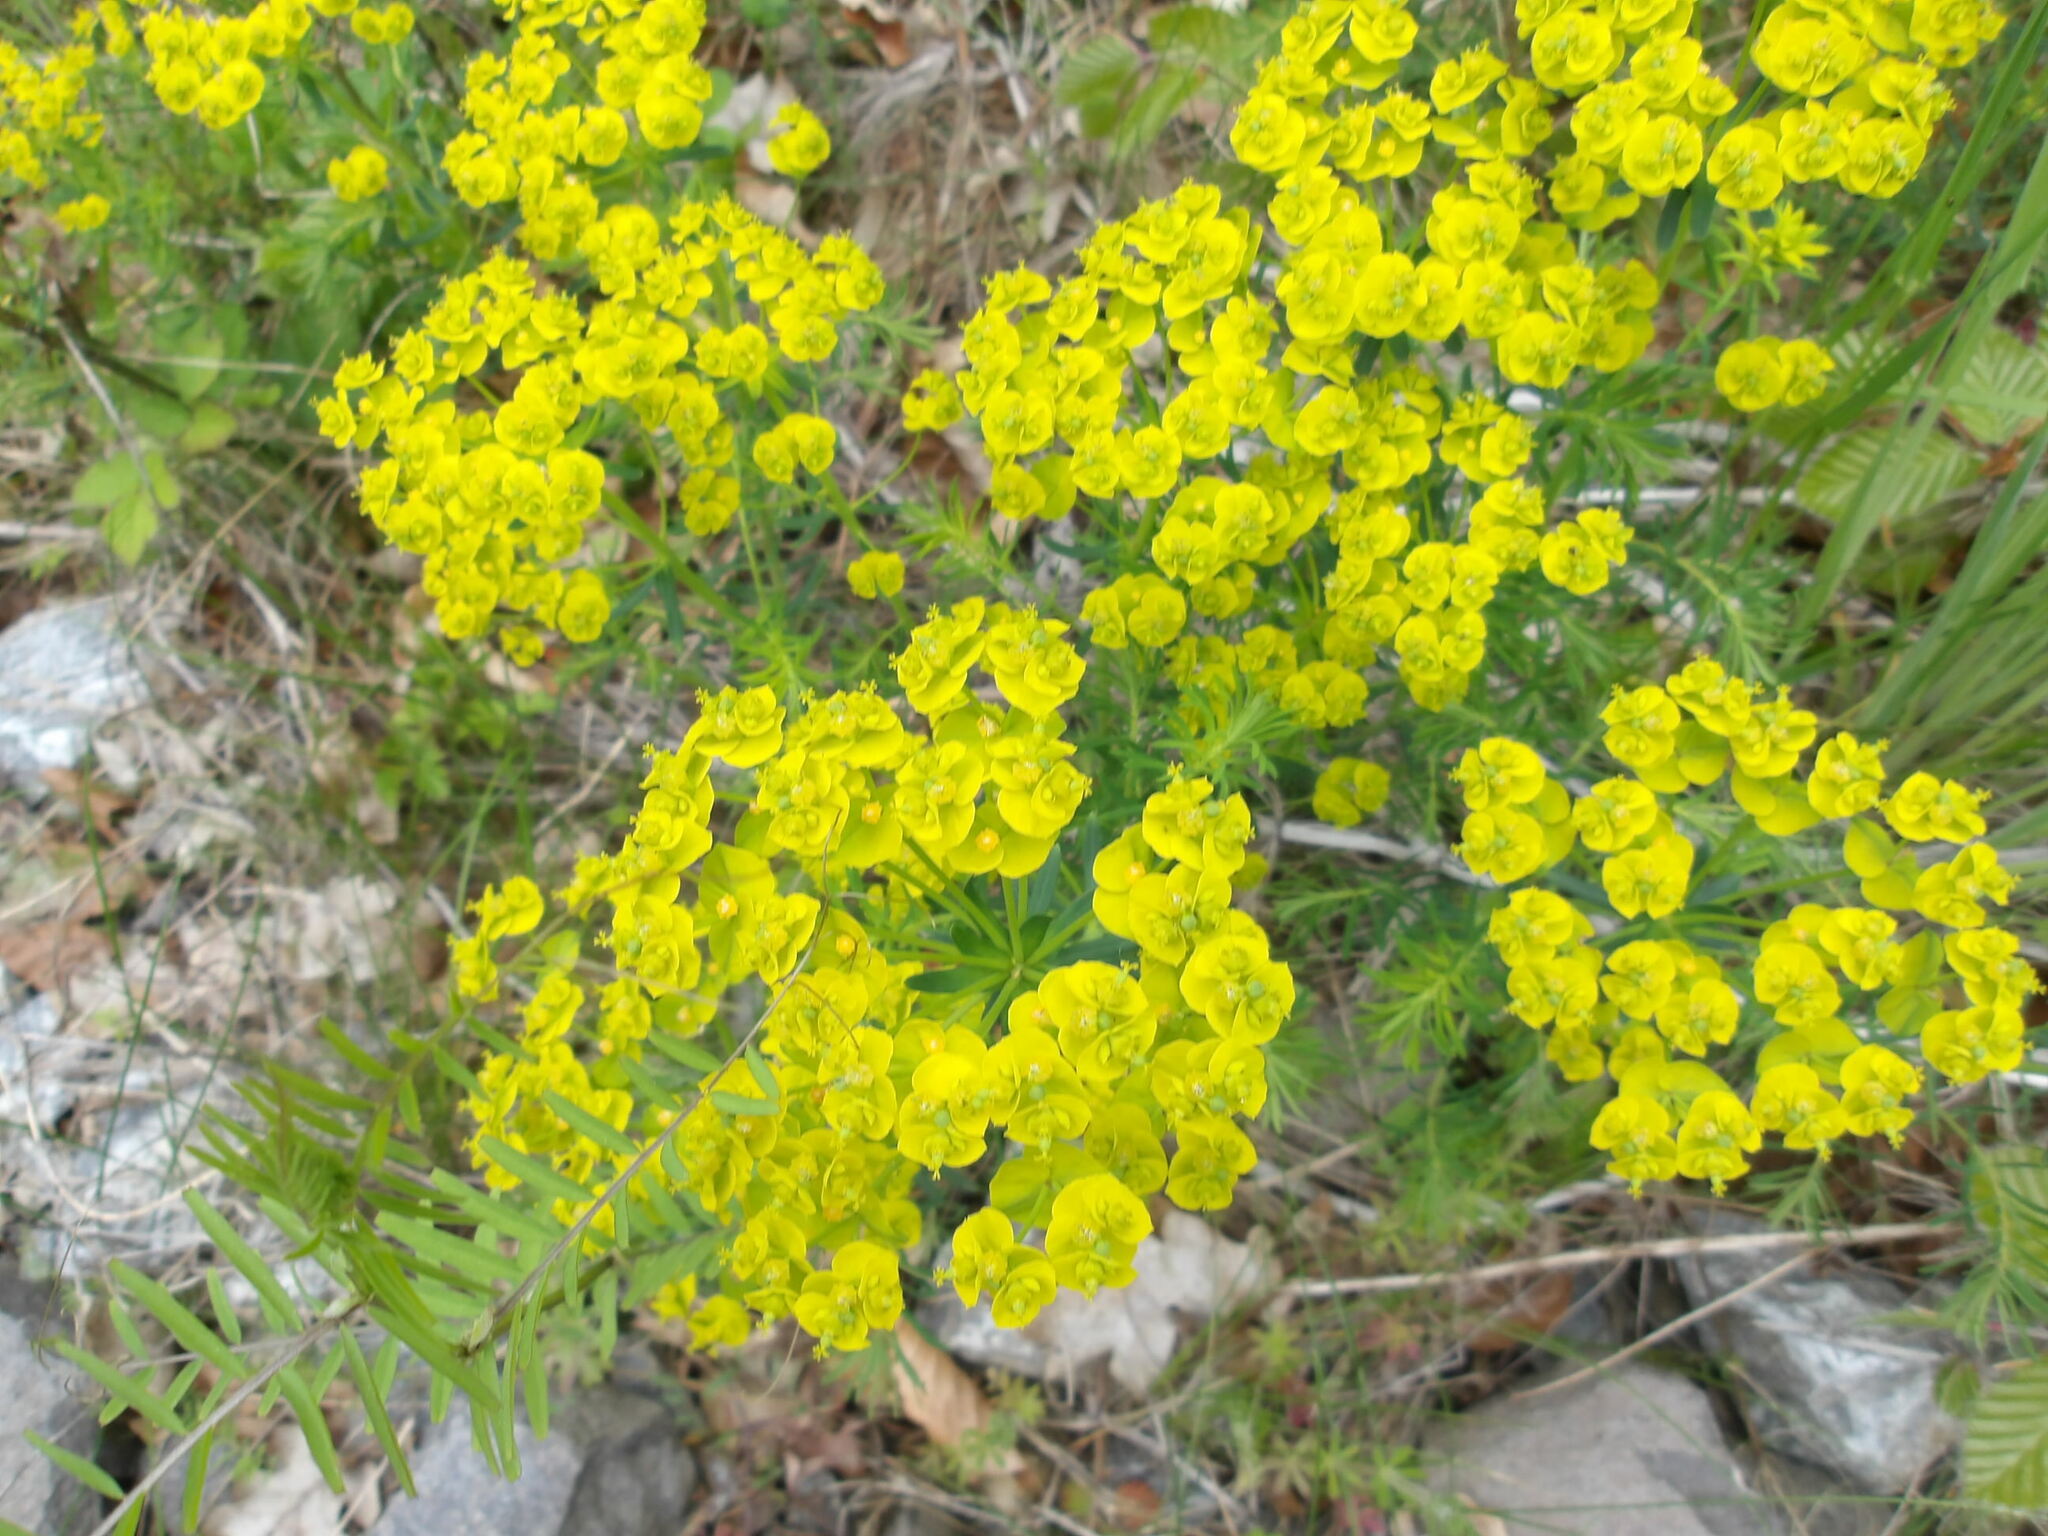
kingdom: Plantae
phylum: Tracheophyta
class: Magnoliopsida
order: Malpighiales
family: Euphorbiaceae
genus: Euphorbia
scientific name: Euphorbia cyparissias
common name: Cypress spurge
